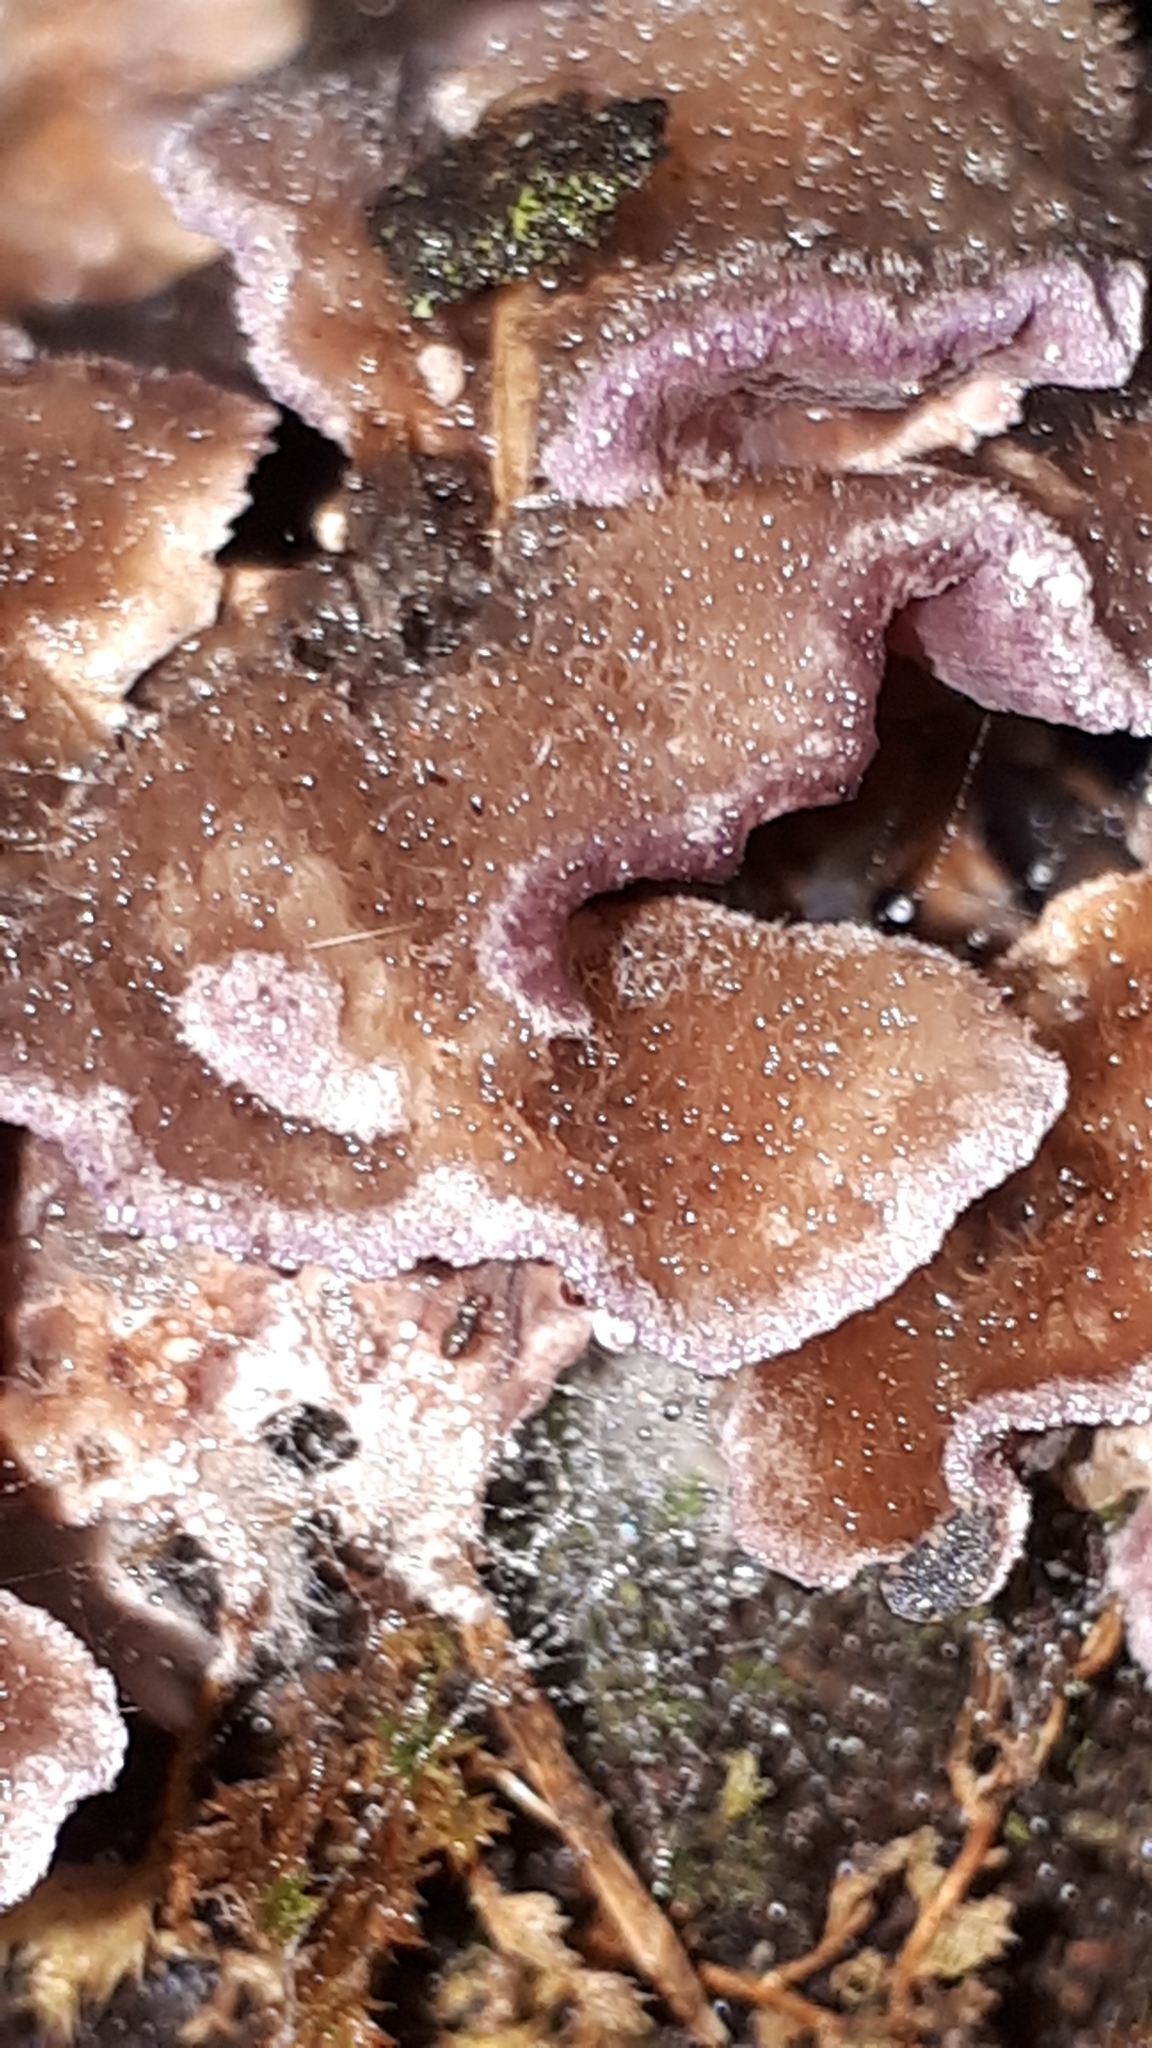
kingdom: Fungi
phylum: Basidiomycota
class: Agaricomycetes
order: Agaricales
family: Cyphellaceae
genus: Chondrostereum
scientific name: Chondrostereum purpureum
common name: Silver leaf disease
